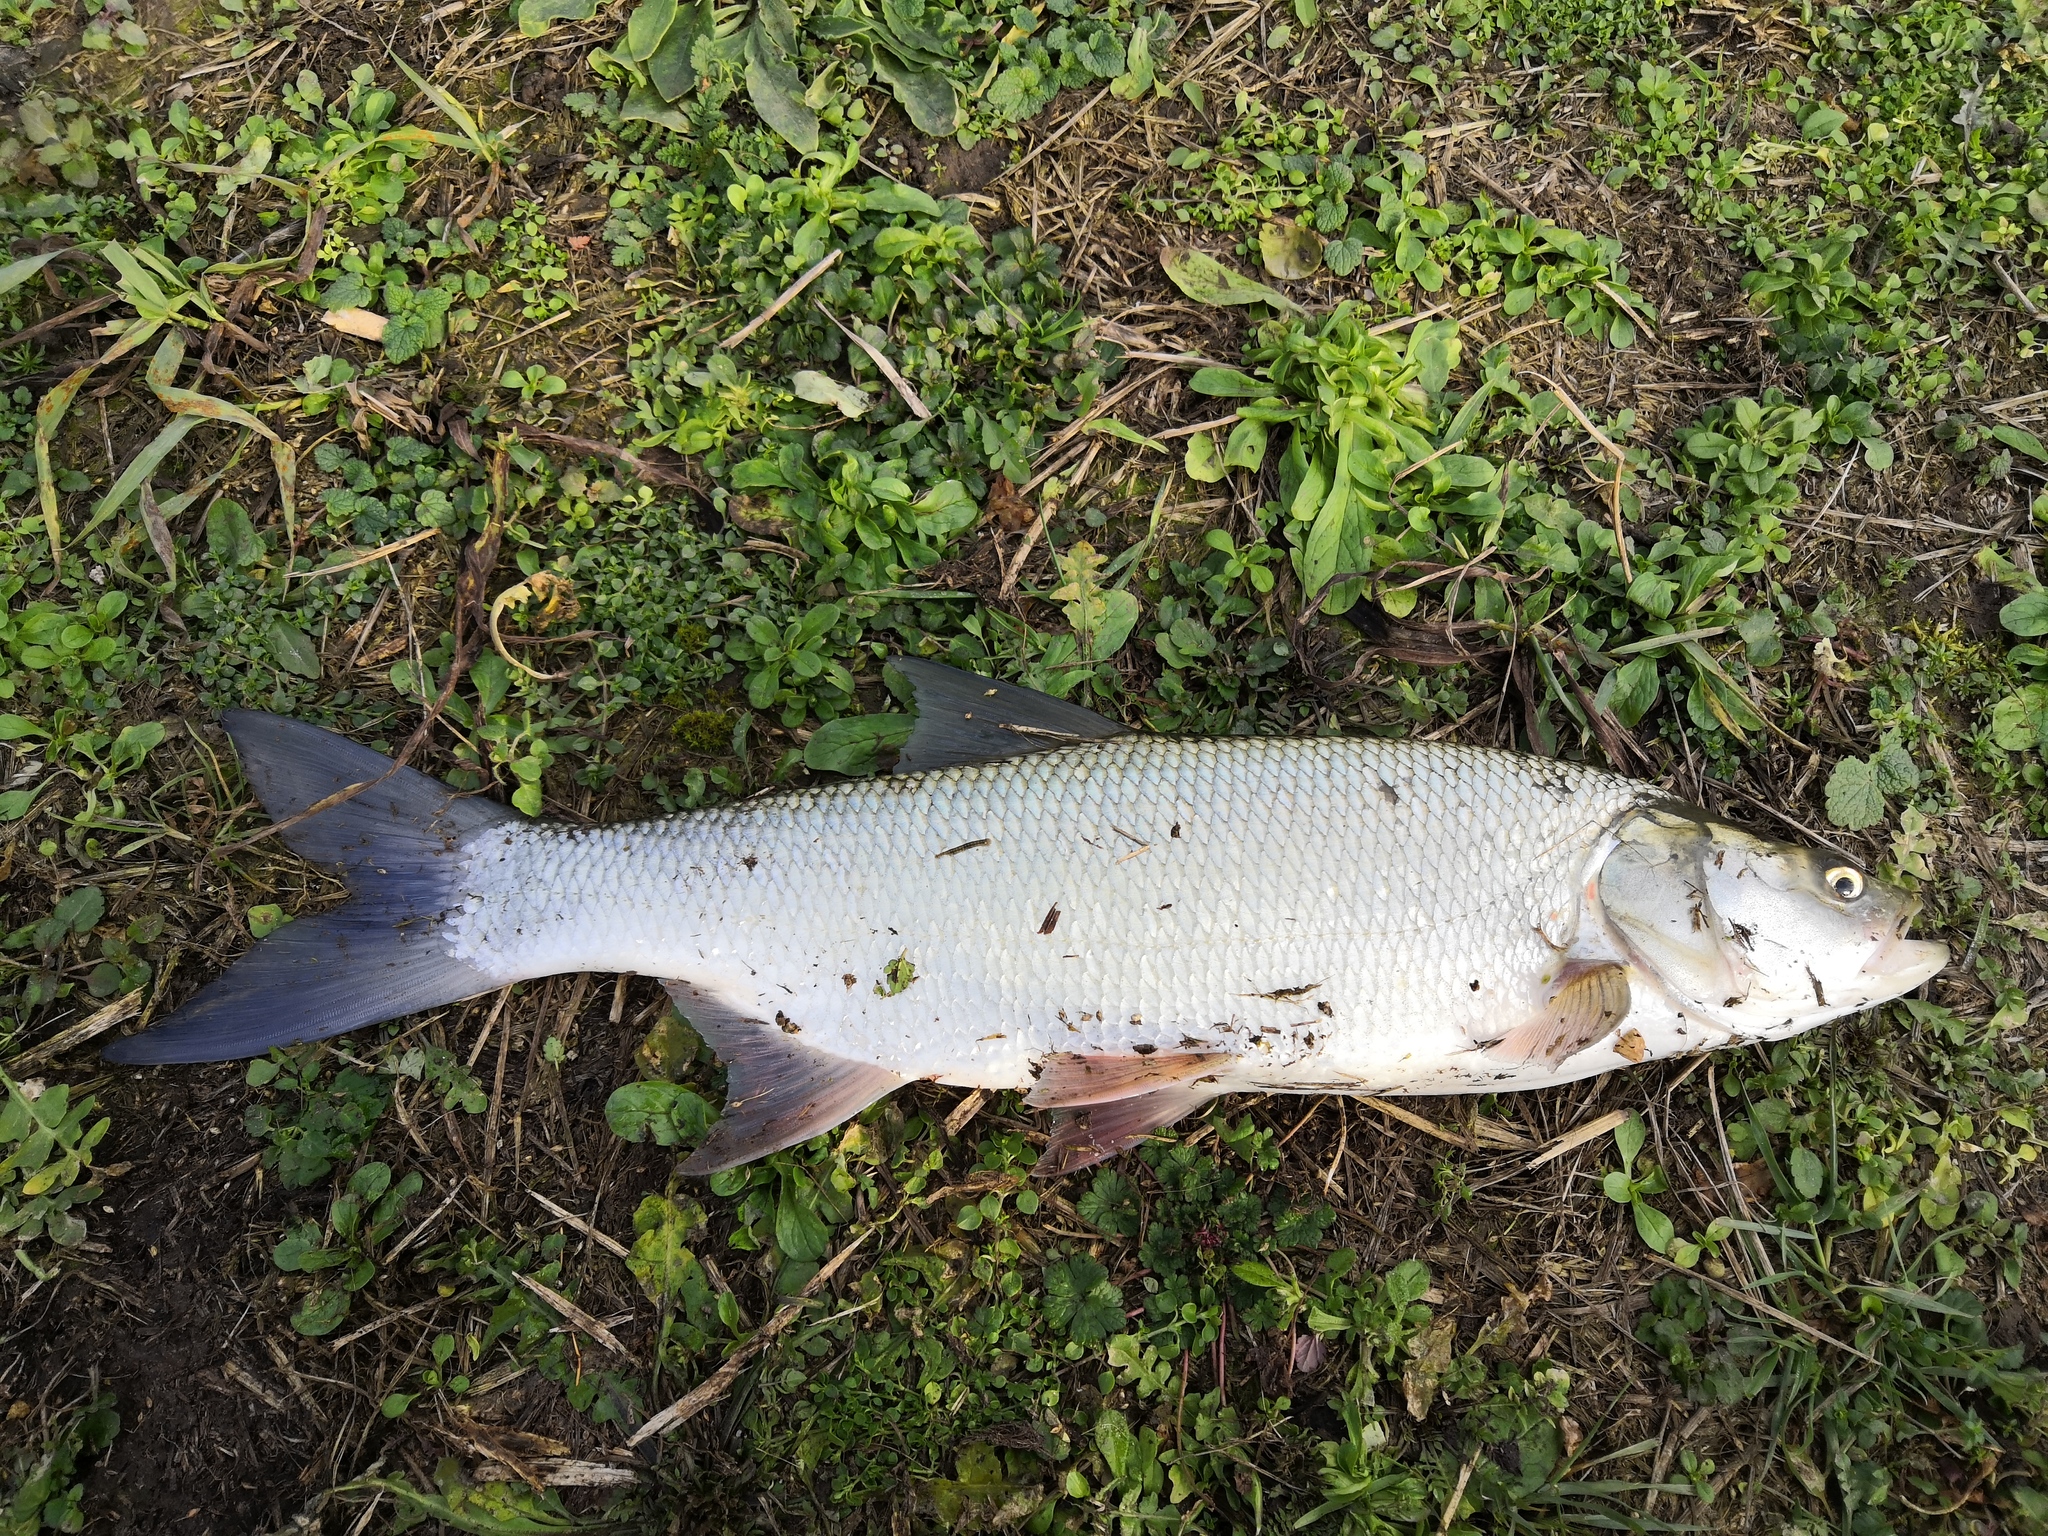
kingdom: Animalia
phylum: Chordata
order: Cypriniformes
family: Cyprinidae
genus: Leuciscus
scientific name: Leuciscus aspius
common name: Asp
